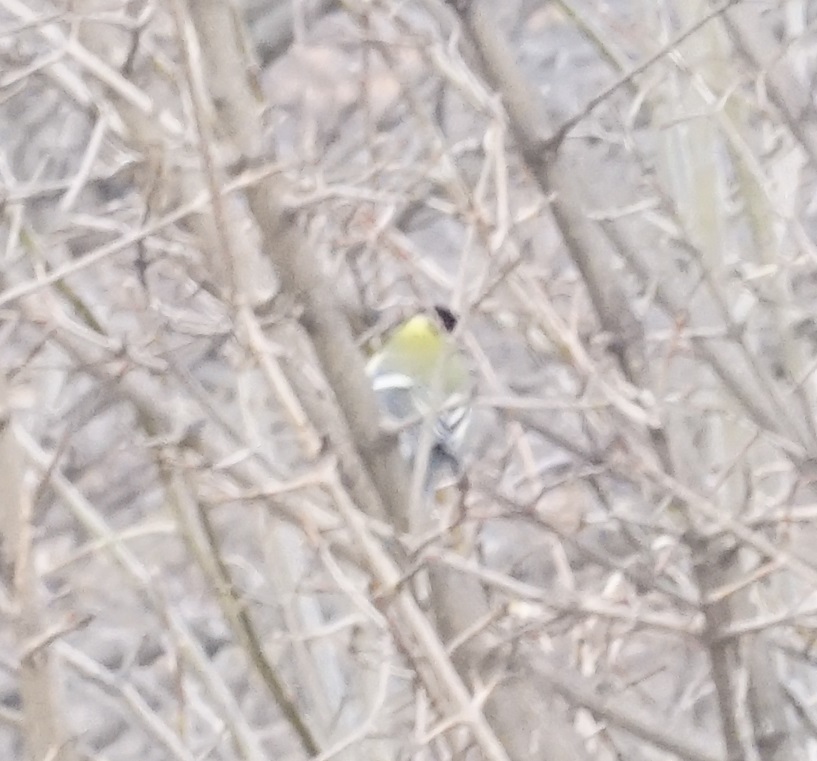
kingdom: Animalia
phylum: Chordata
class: Aves
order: Passeriformes
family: Paridae
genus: Parus
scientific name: Parus major
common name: Great tit
